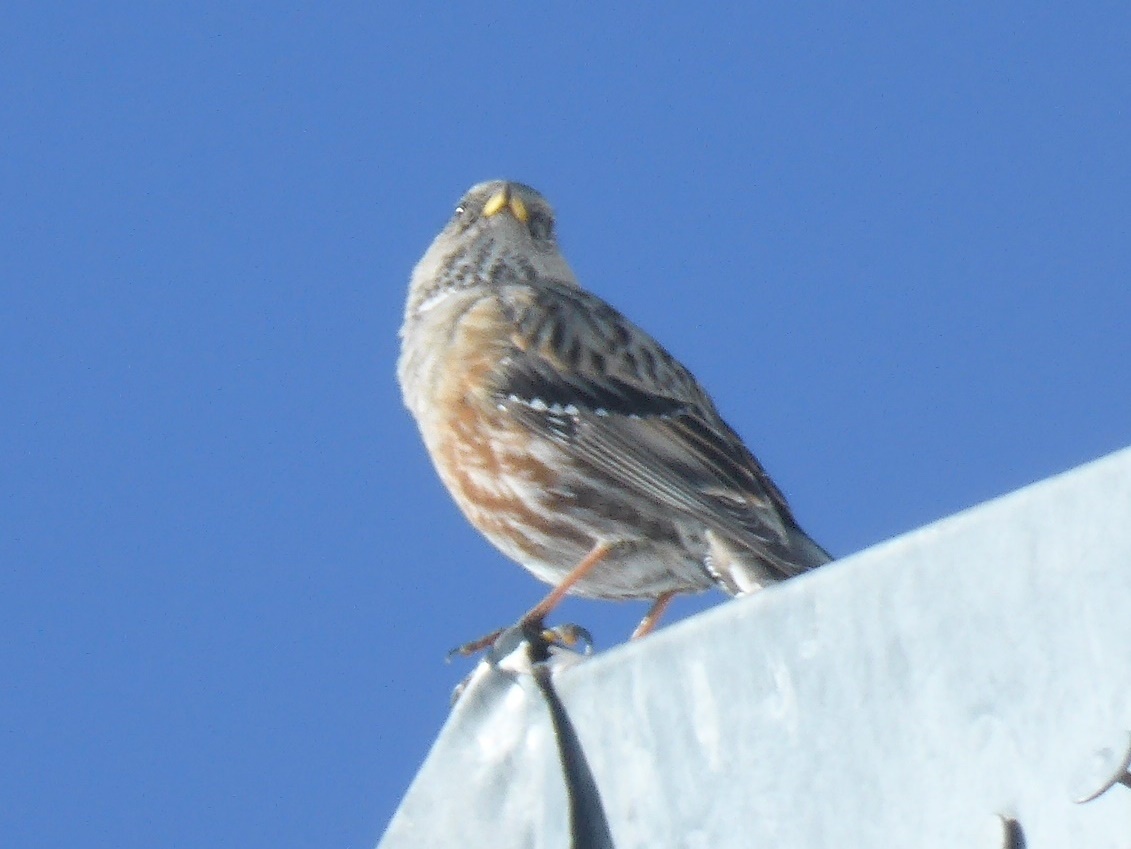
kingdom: Animalia
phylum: Chordata
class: Aves
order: Passeriformes
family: Prunellidae
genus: Prunella
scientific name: Prunella collaris
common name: Alpine accentor
